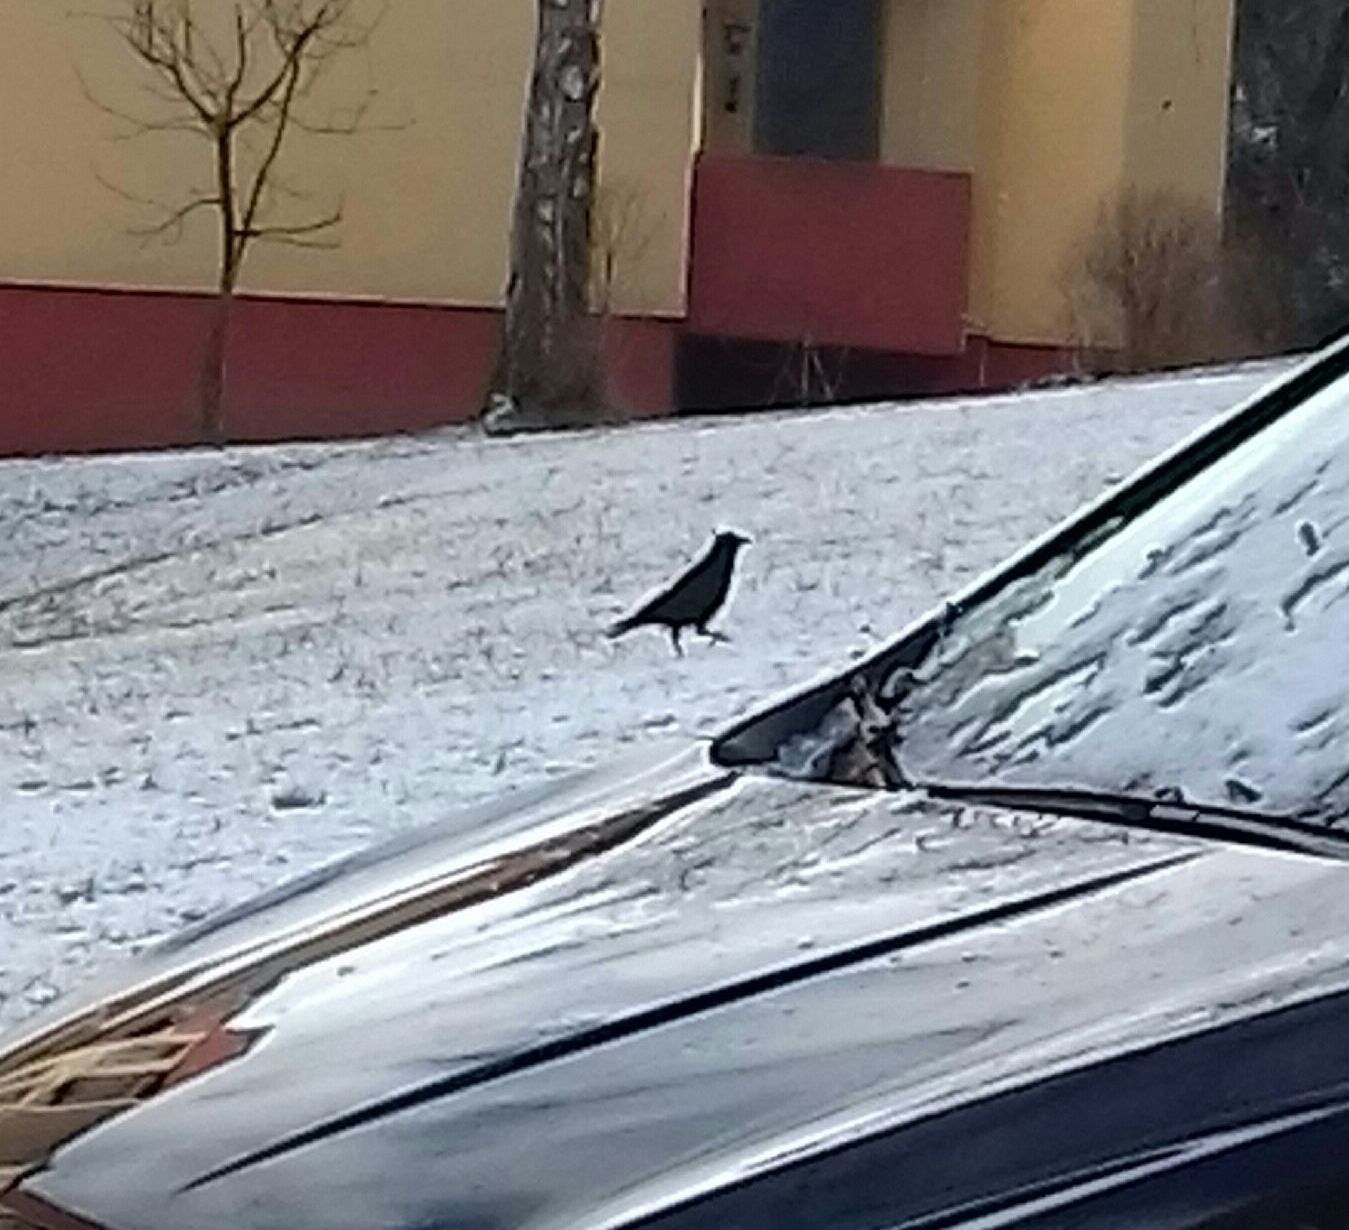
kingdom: Animalia
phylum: Chordata
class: Aves
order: Passeriformes
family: Corvidae
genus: Corvus
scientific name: Corvus corone
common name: Carrion crow
